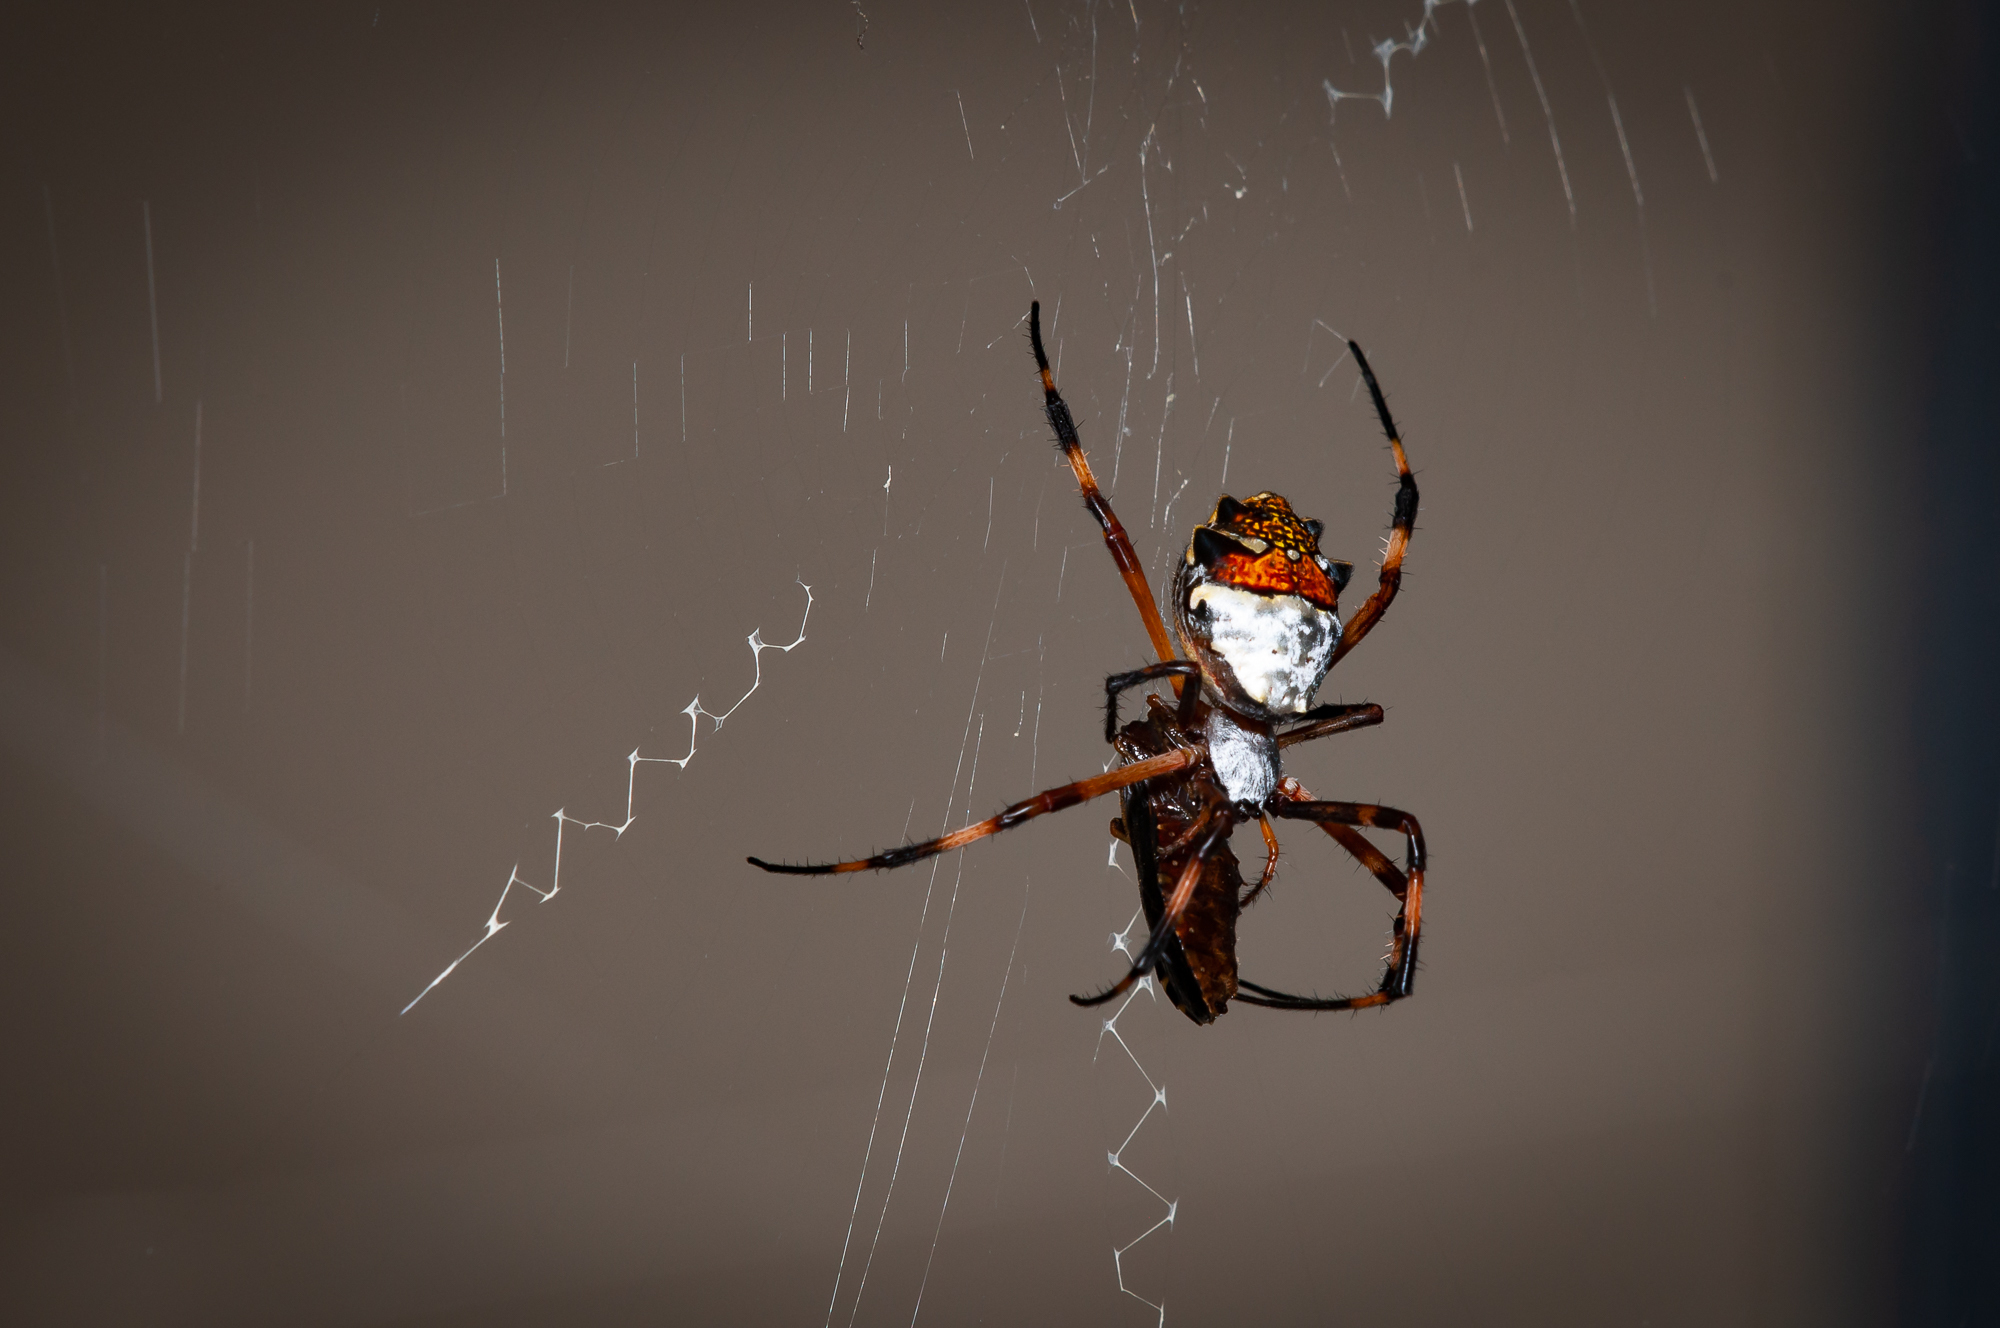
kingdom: Animalia
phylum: Arthropoda
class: Arachnida
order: Araneae
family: Araneidae
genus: Argiope
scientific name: Argiope argentata
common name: Orb weavers
